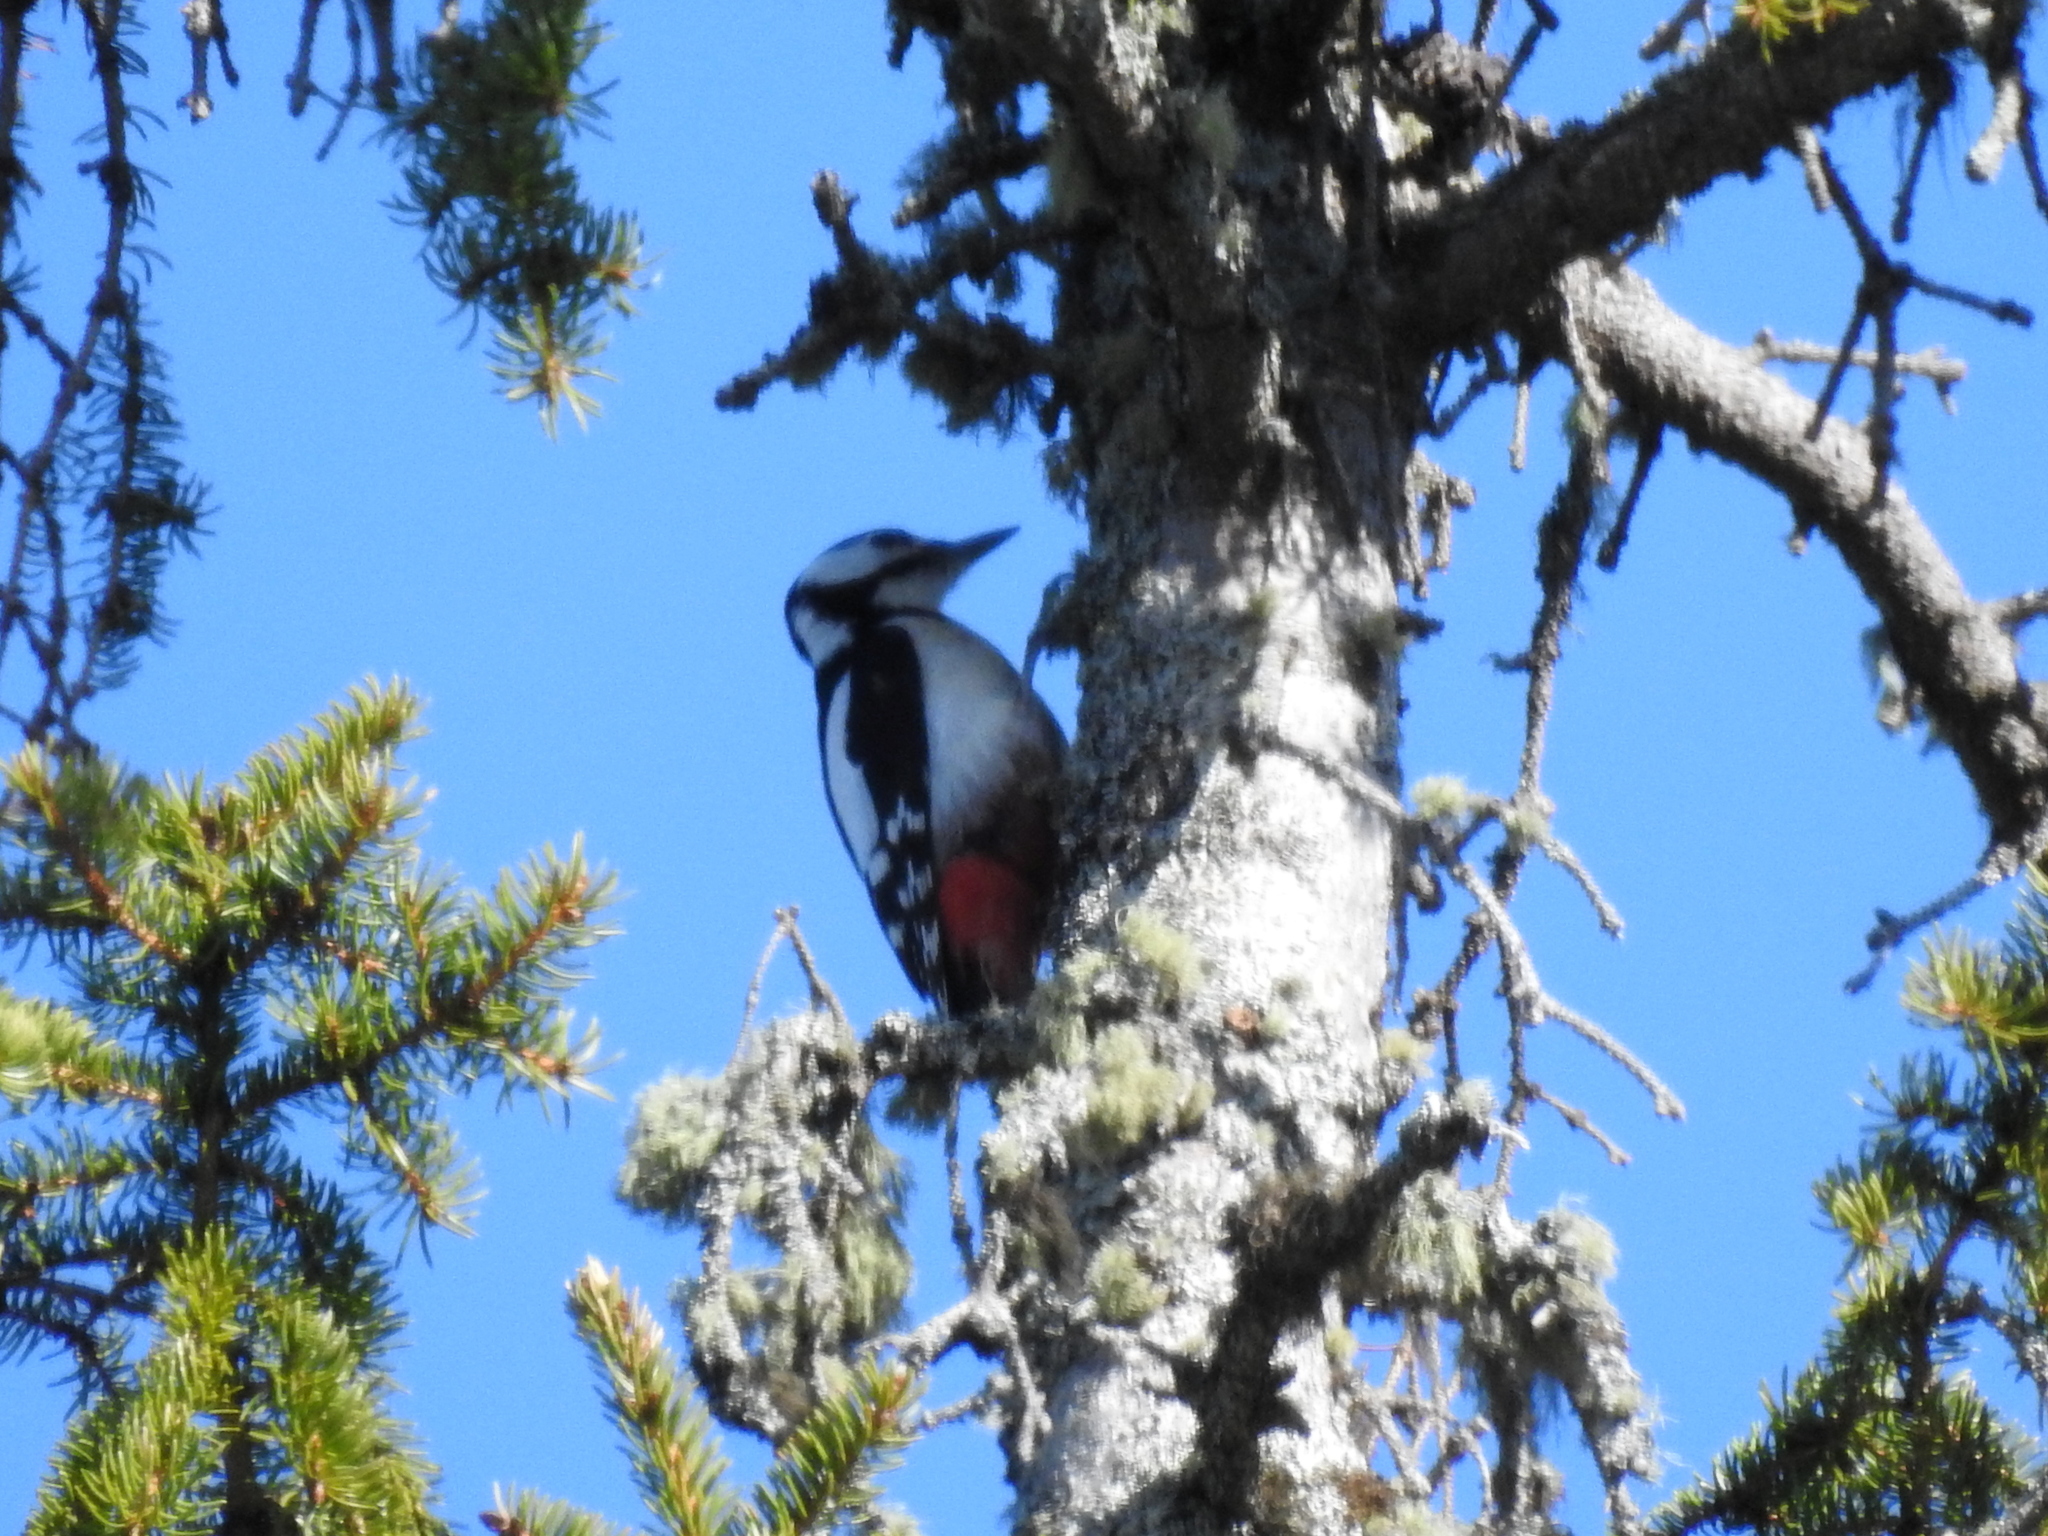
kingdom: Animalia
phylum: Chordata
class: Aves
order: Piciformes
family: Picidae
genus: Dendrocopos
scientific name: Dendrocopos major
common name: Great spotted woodpecker
